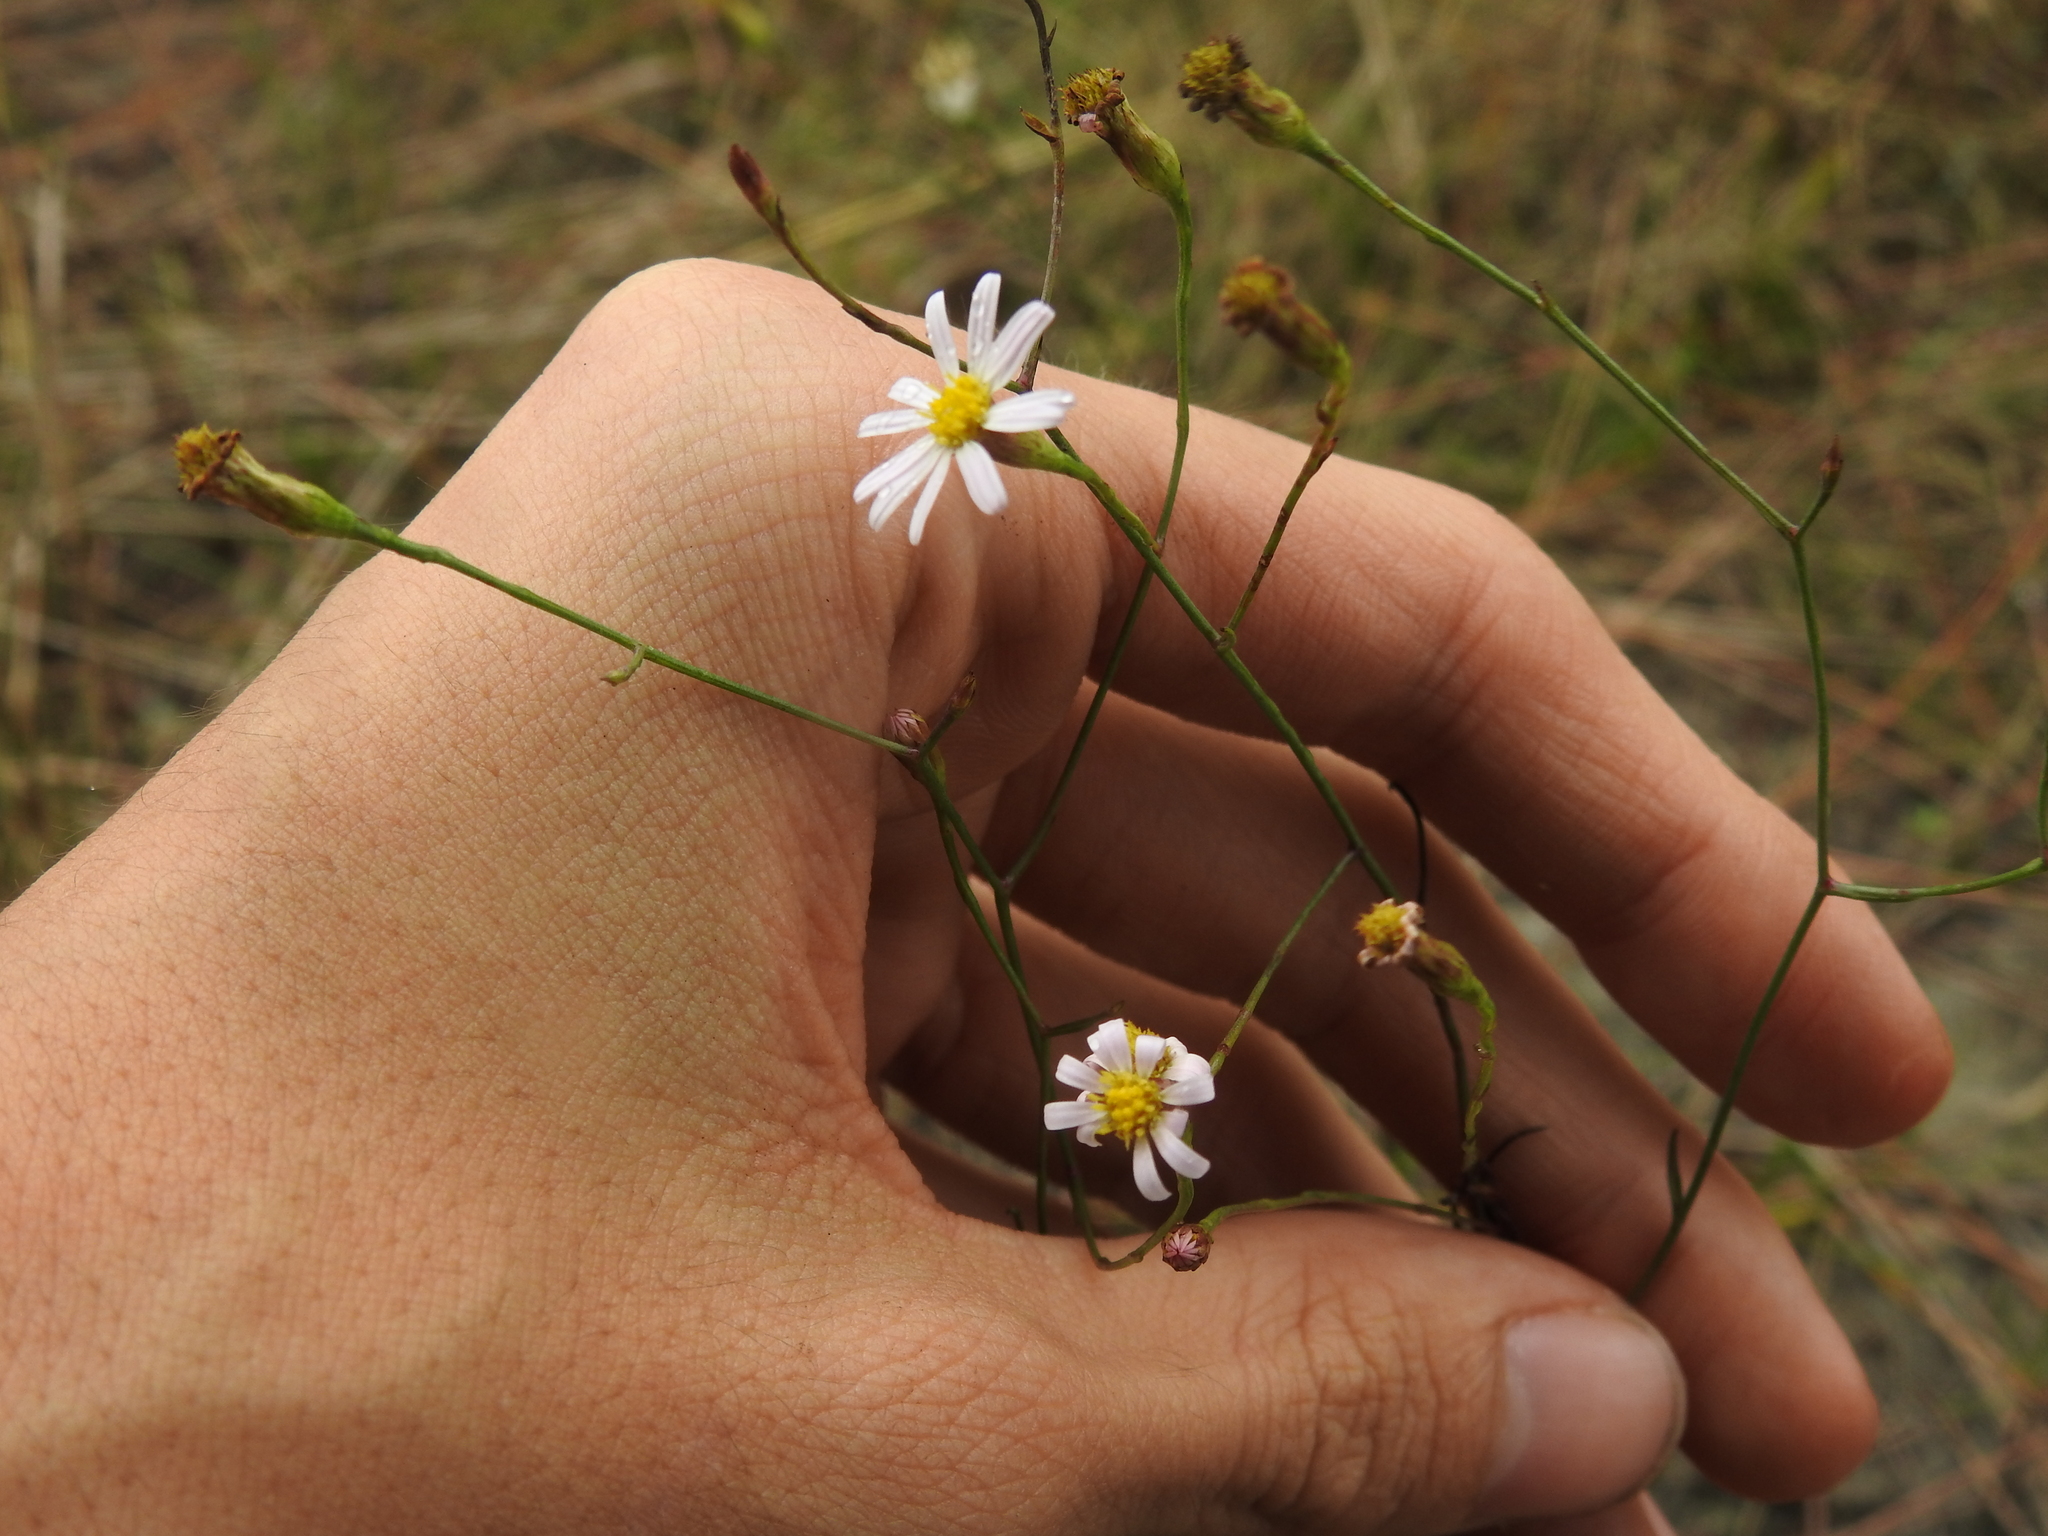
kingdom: Plantae
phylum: Tracheophyta
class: Magnoliopsida
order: Asterales
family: Asteraceae
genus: Symphyotrichum
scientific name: Symphyotrichum tenuifolium
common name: Perennial salt-marsh aster
